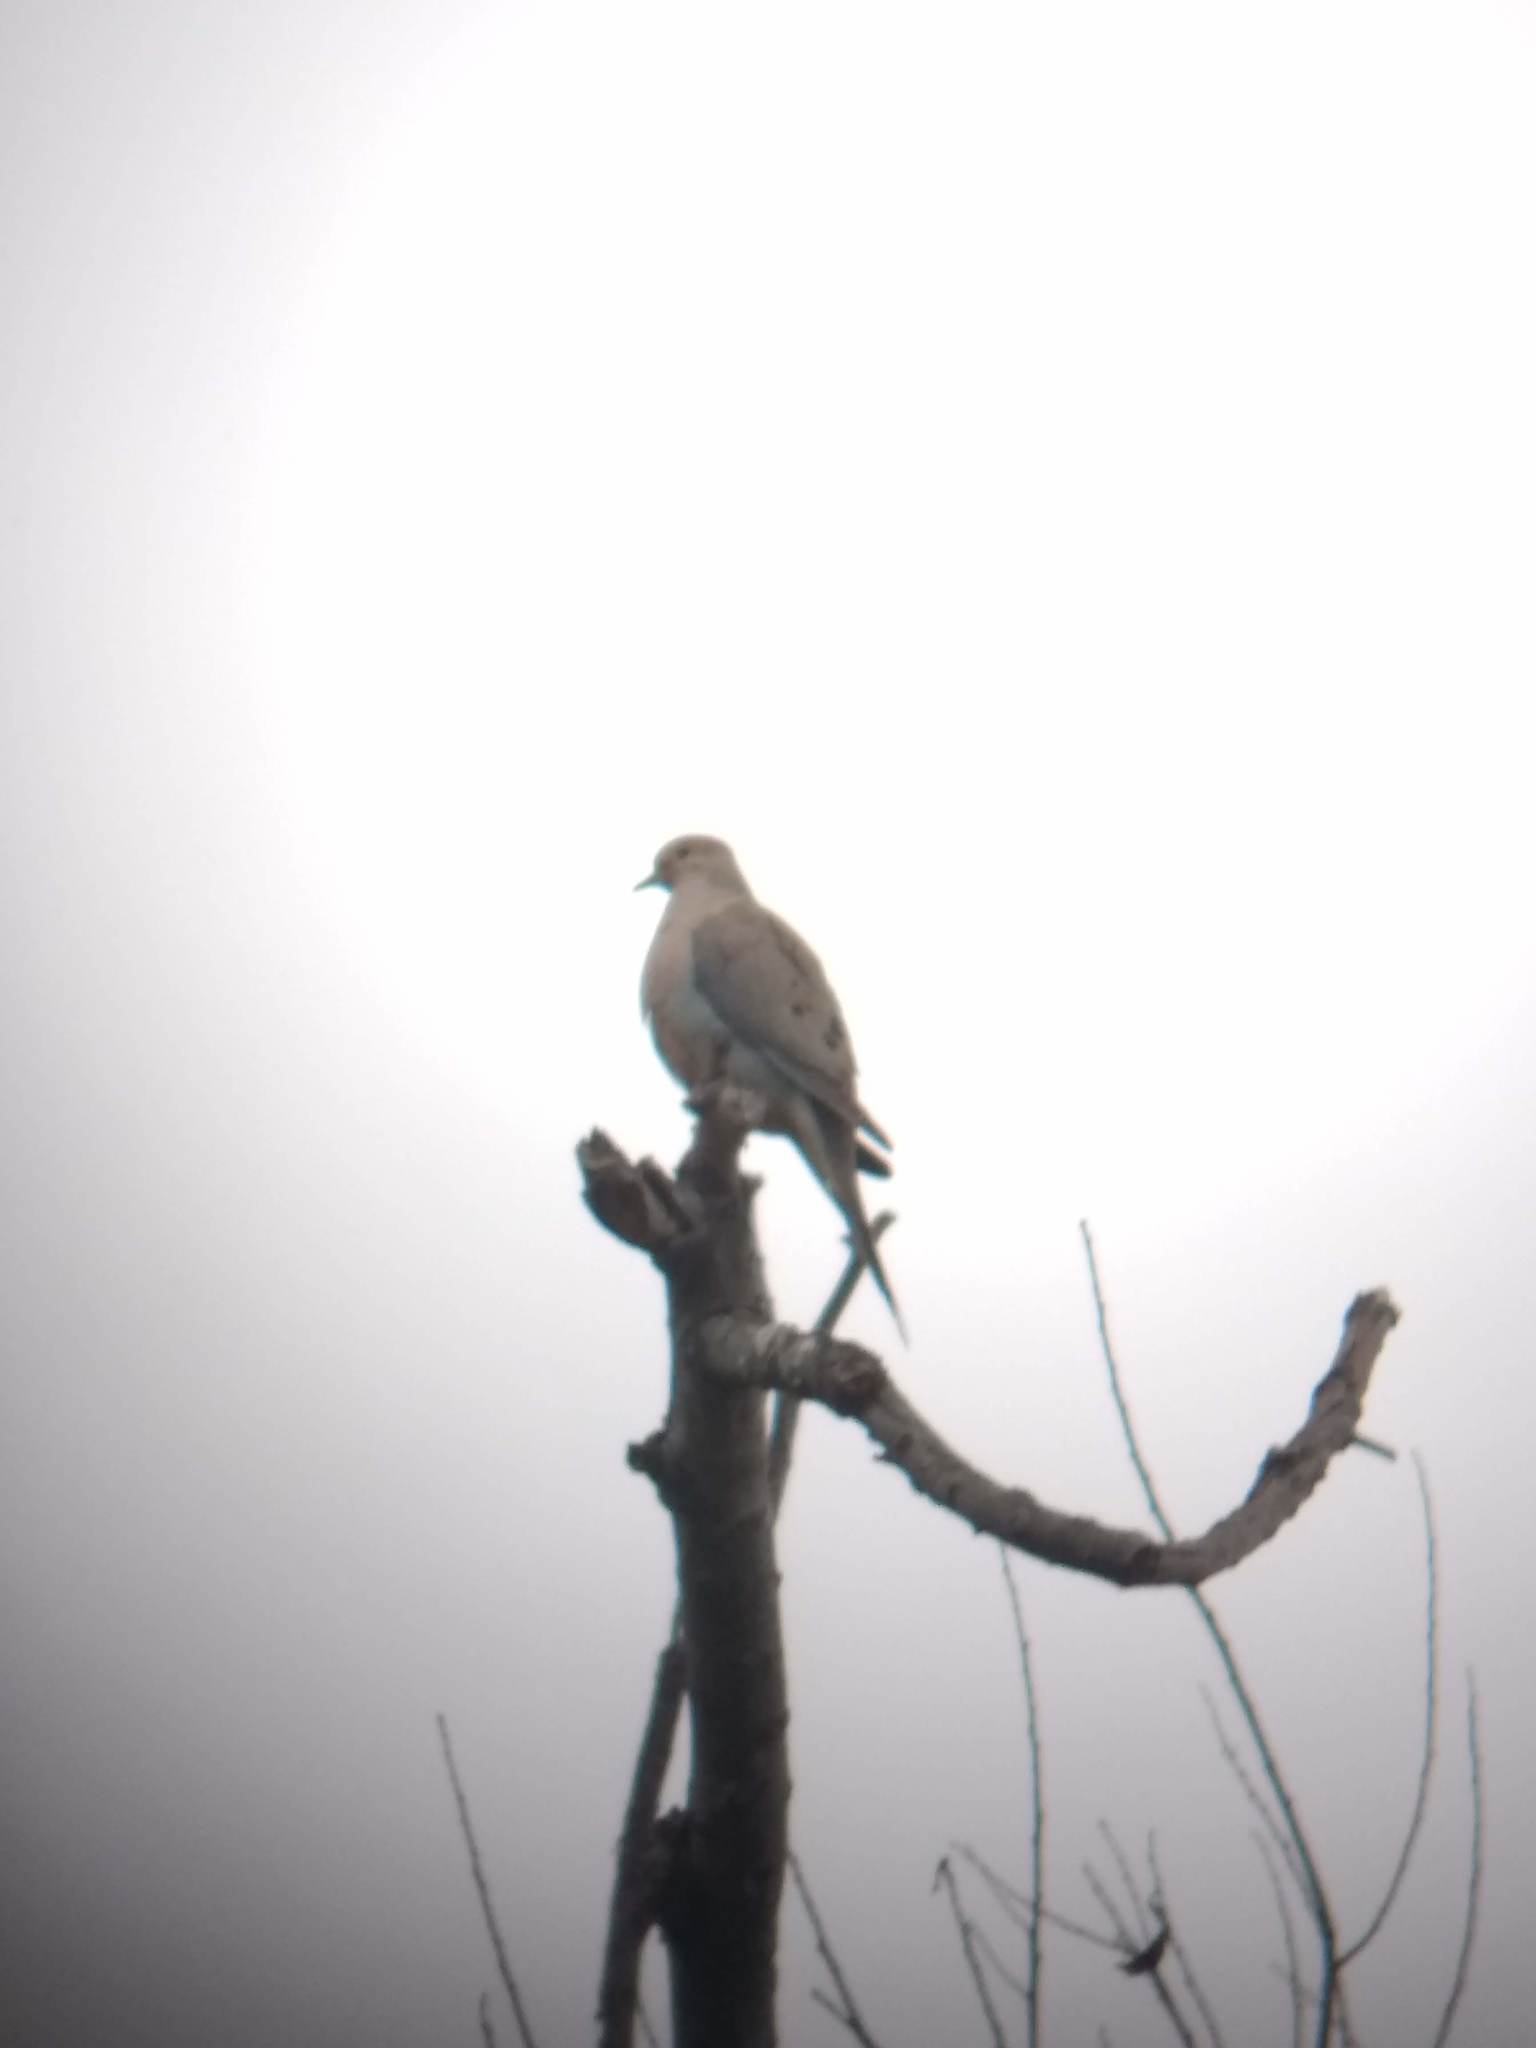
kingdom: Animalia
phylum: Chordata
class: Aves
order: Columbiformes
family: Columbidae
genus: Zenaida
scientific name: Zenaida macroura
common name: Mourning dove
